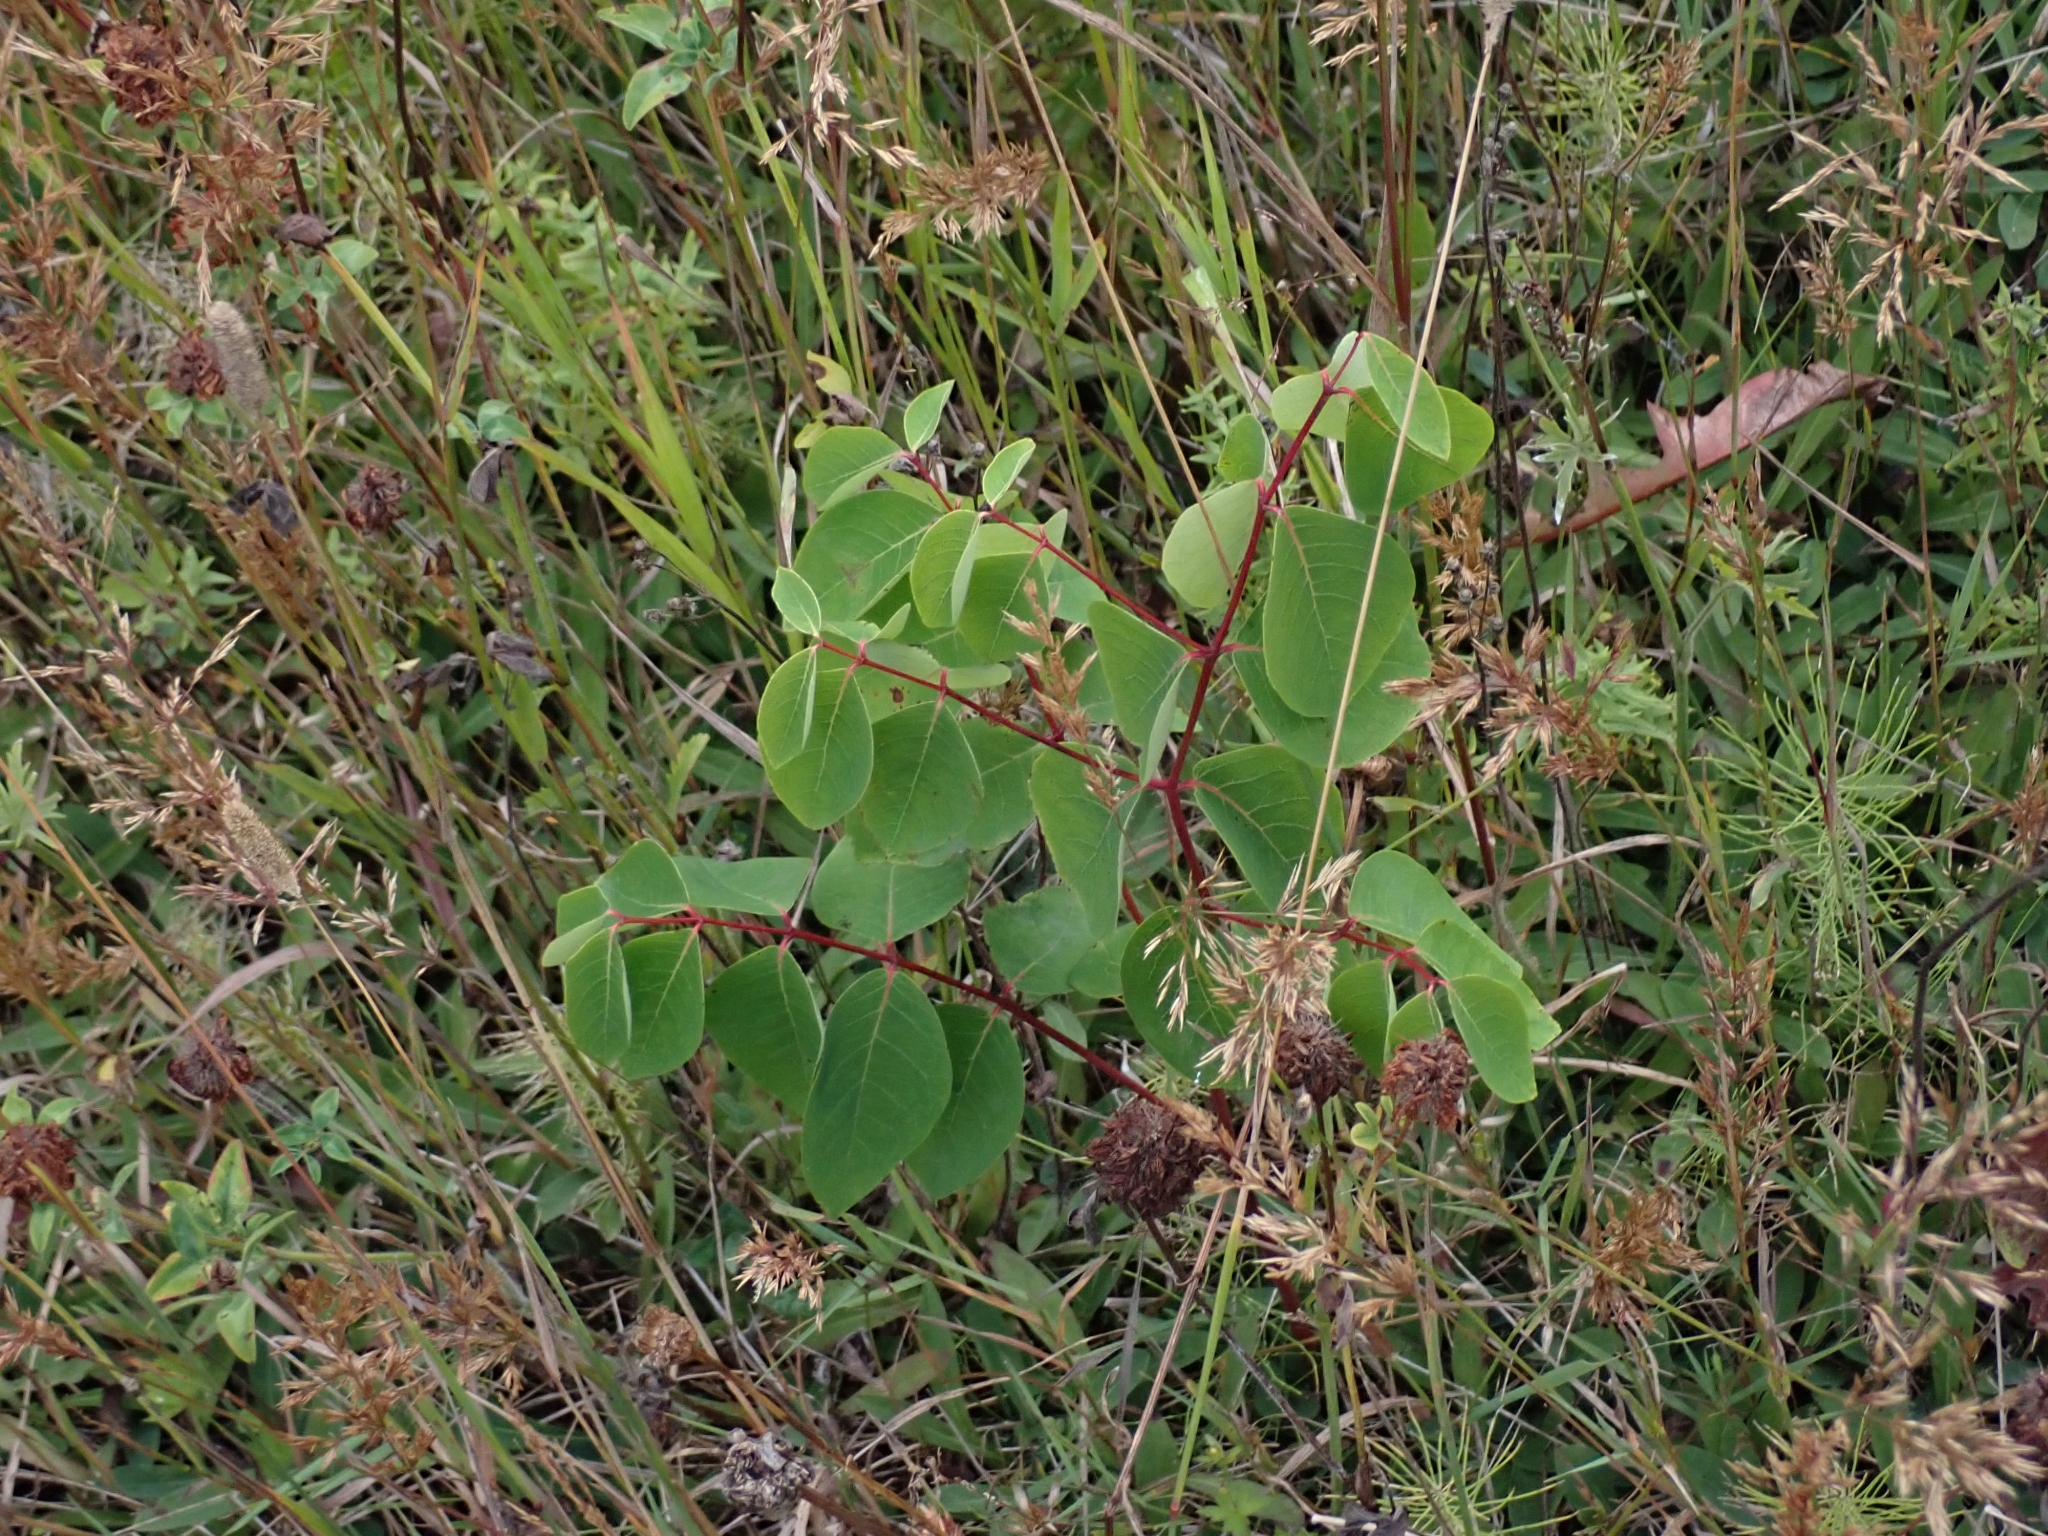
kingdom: Plantae
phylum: Tracheophyta
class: Magnoliopsida
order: Gentianales
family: Apocynaceae
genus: Apocynum
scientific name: Apocynum androsaemifolium
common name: Spreading dogbane
